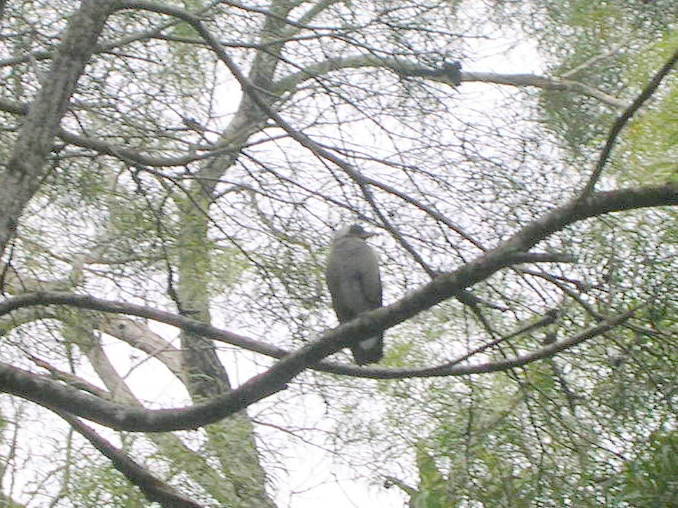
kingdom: Animalia
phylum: Chordata
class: Aves
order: Passeriformes
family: Cracticidae
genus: Gymnorhina
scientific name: Gymnorhina tibicen
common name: Australian magpie
